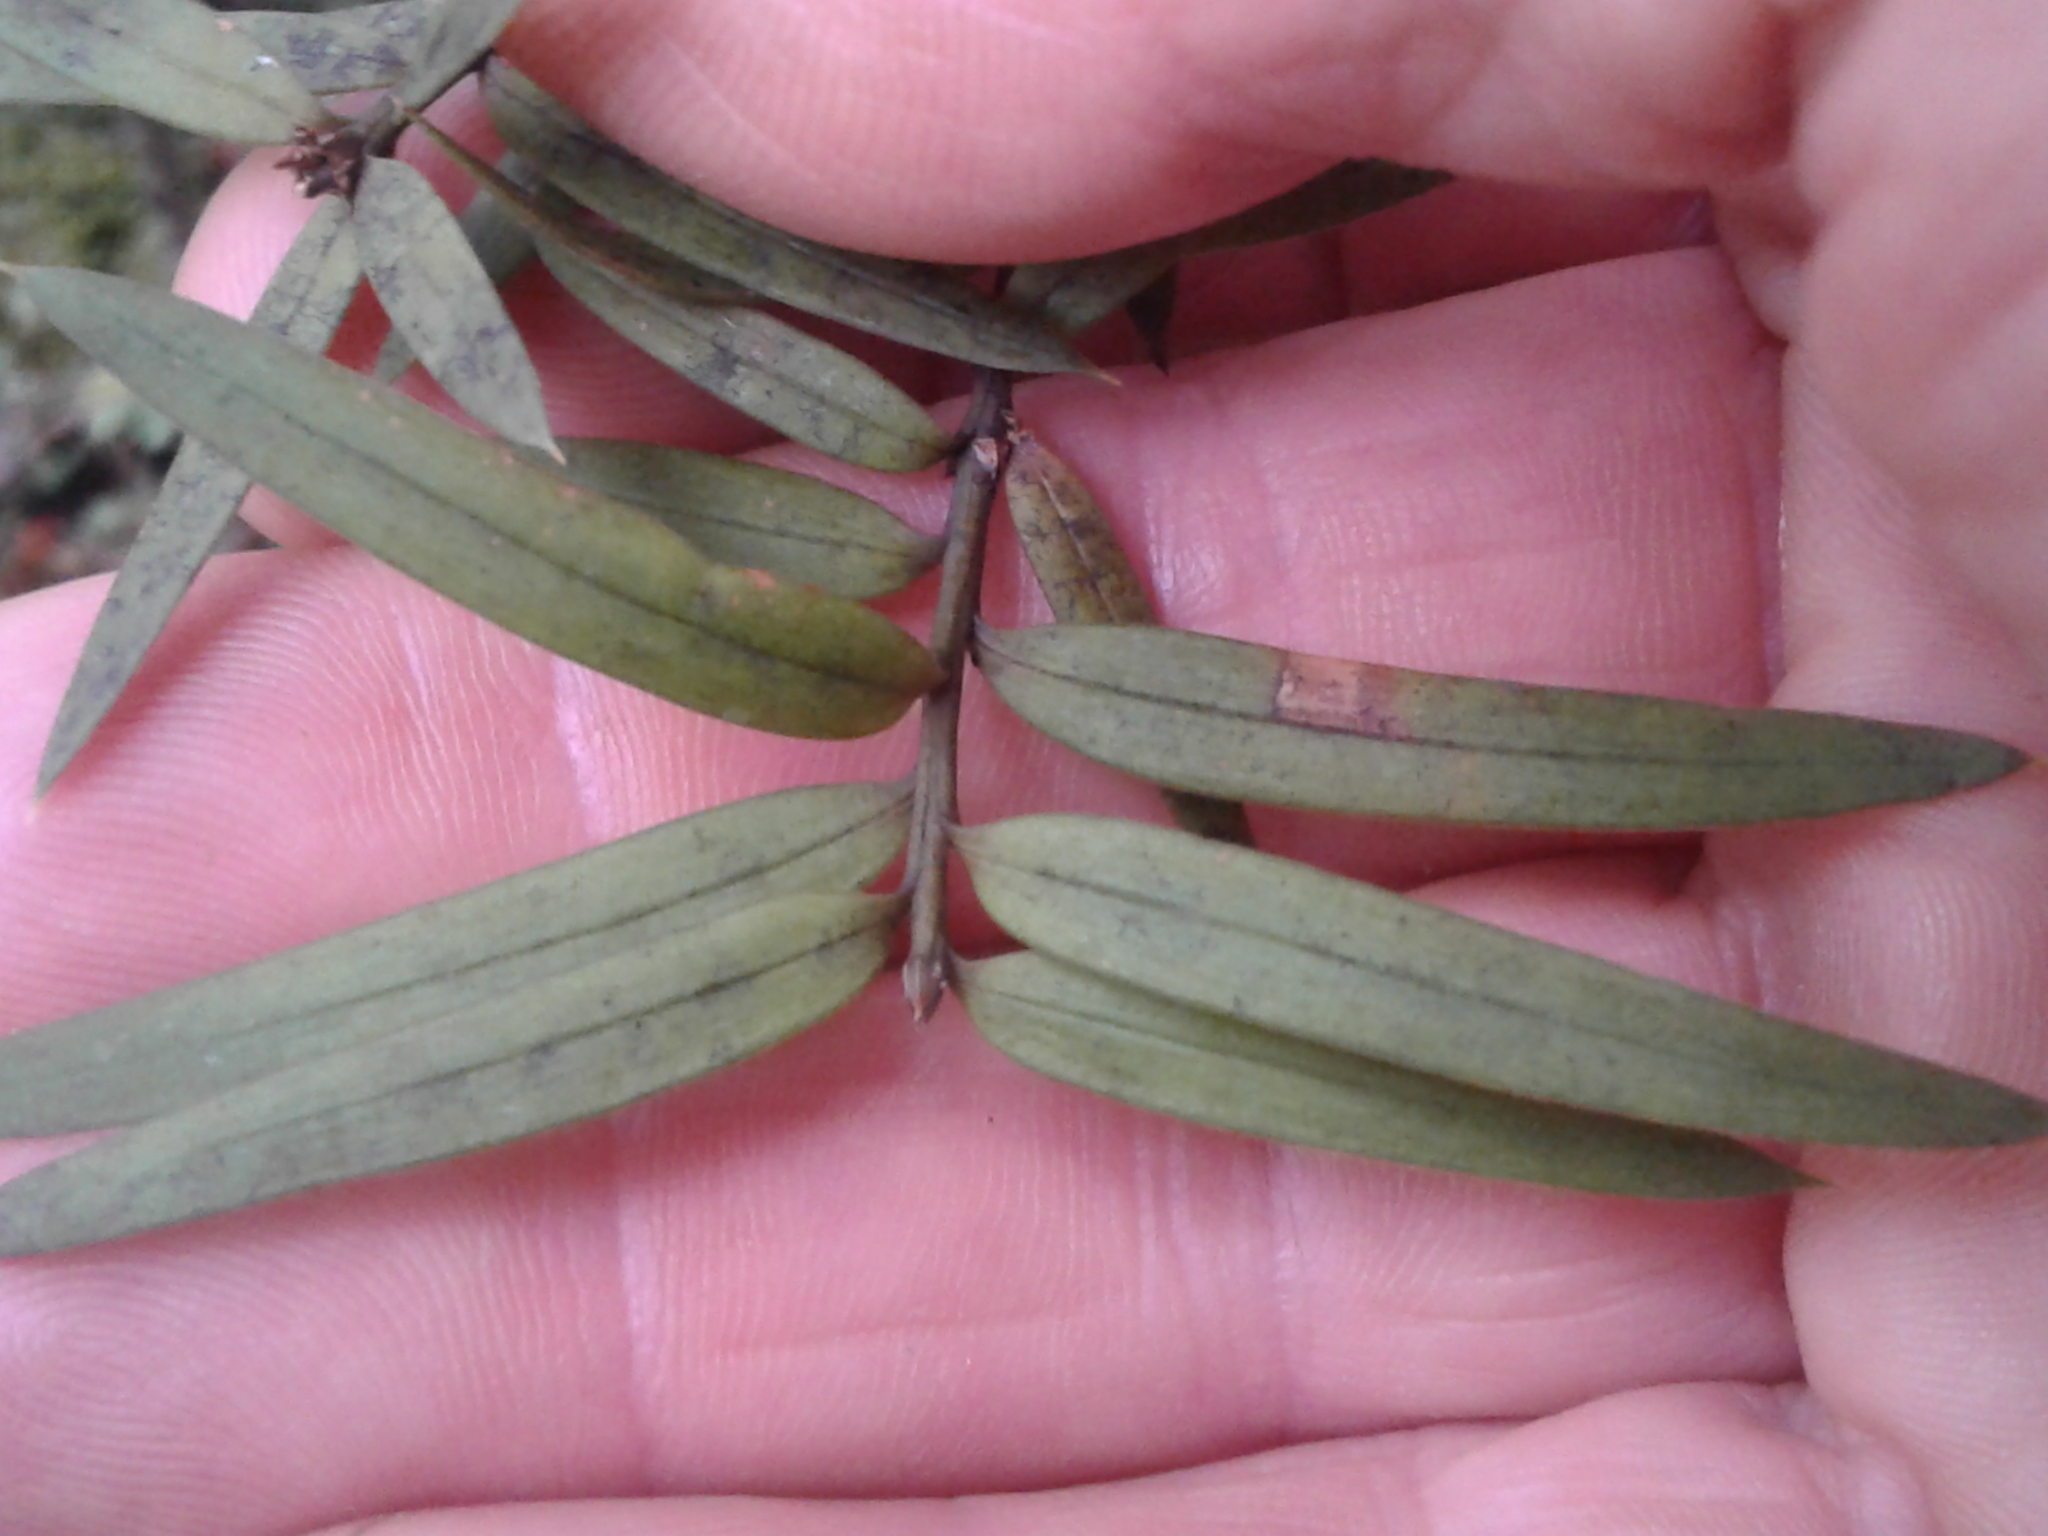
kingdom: Plantae
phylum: Tracheophyta
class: Pinopsida
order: Pinales
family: Podocarpaceae
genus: Podocarpus
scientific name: Podocarpus totara
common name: Totara
